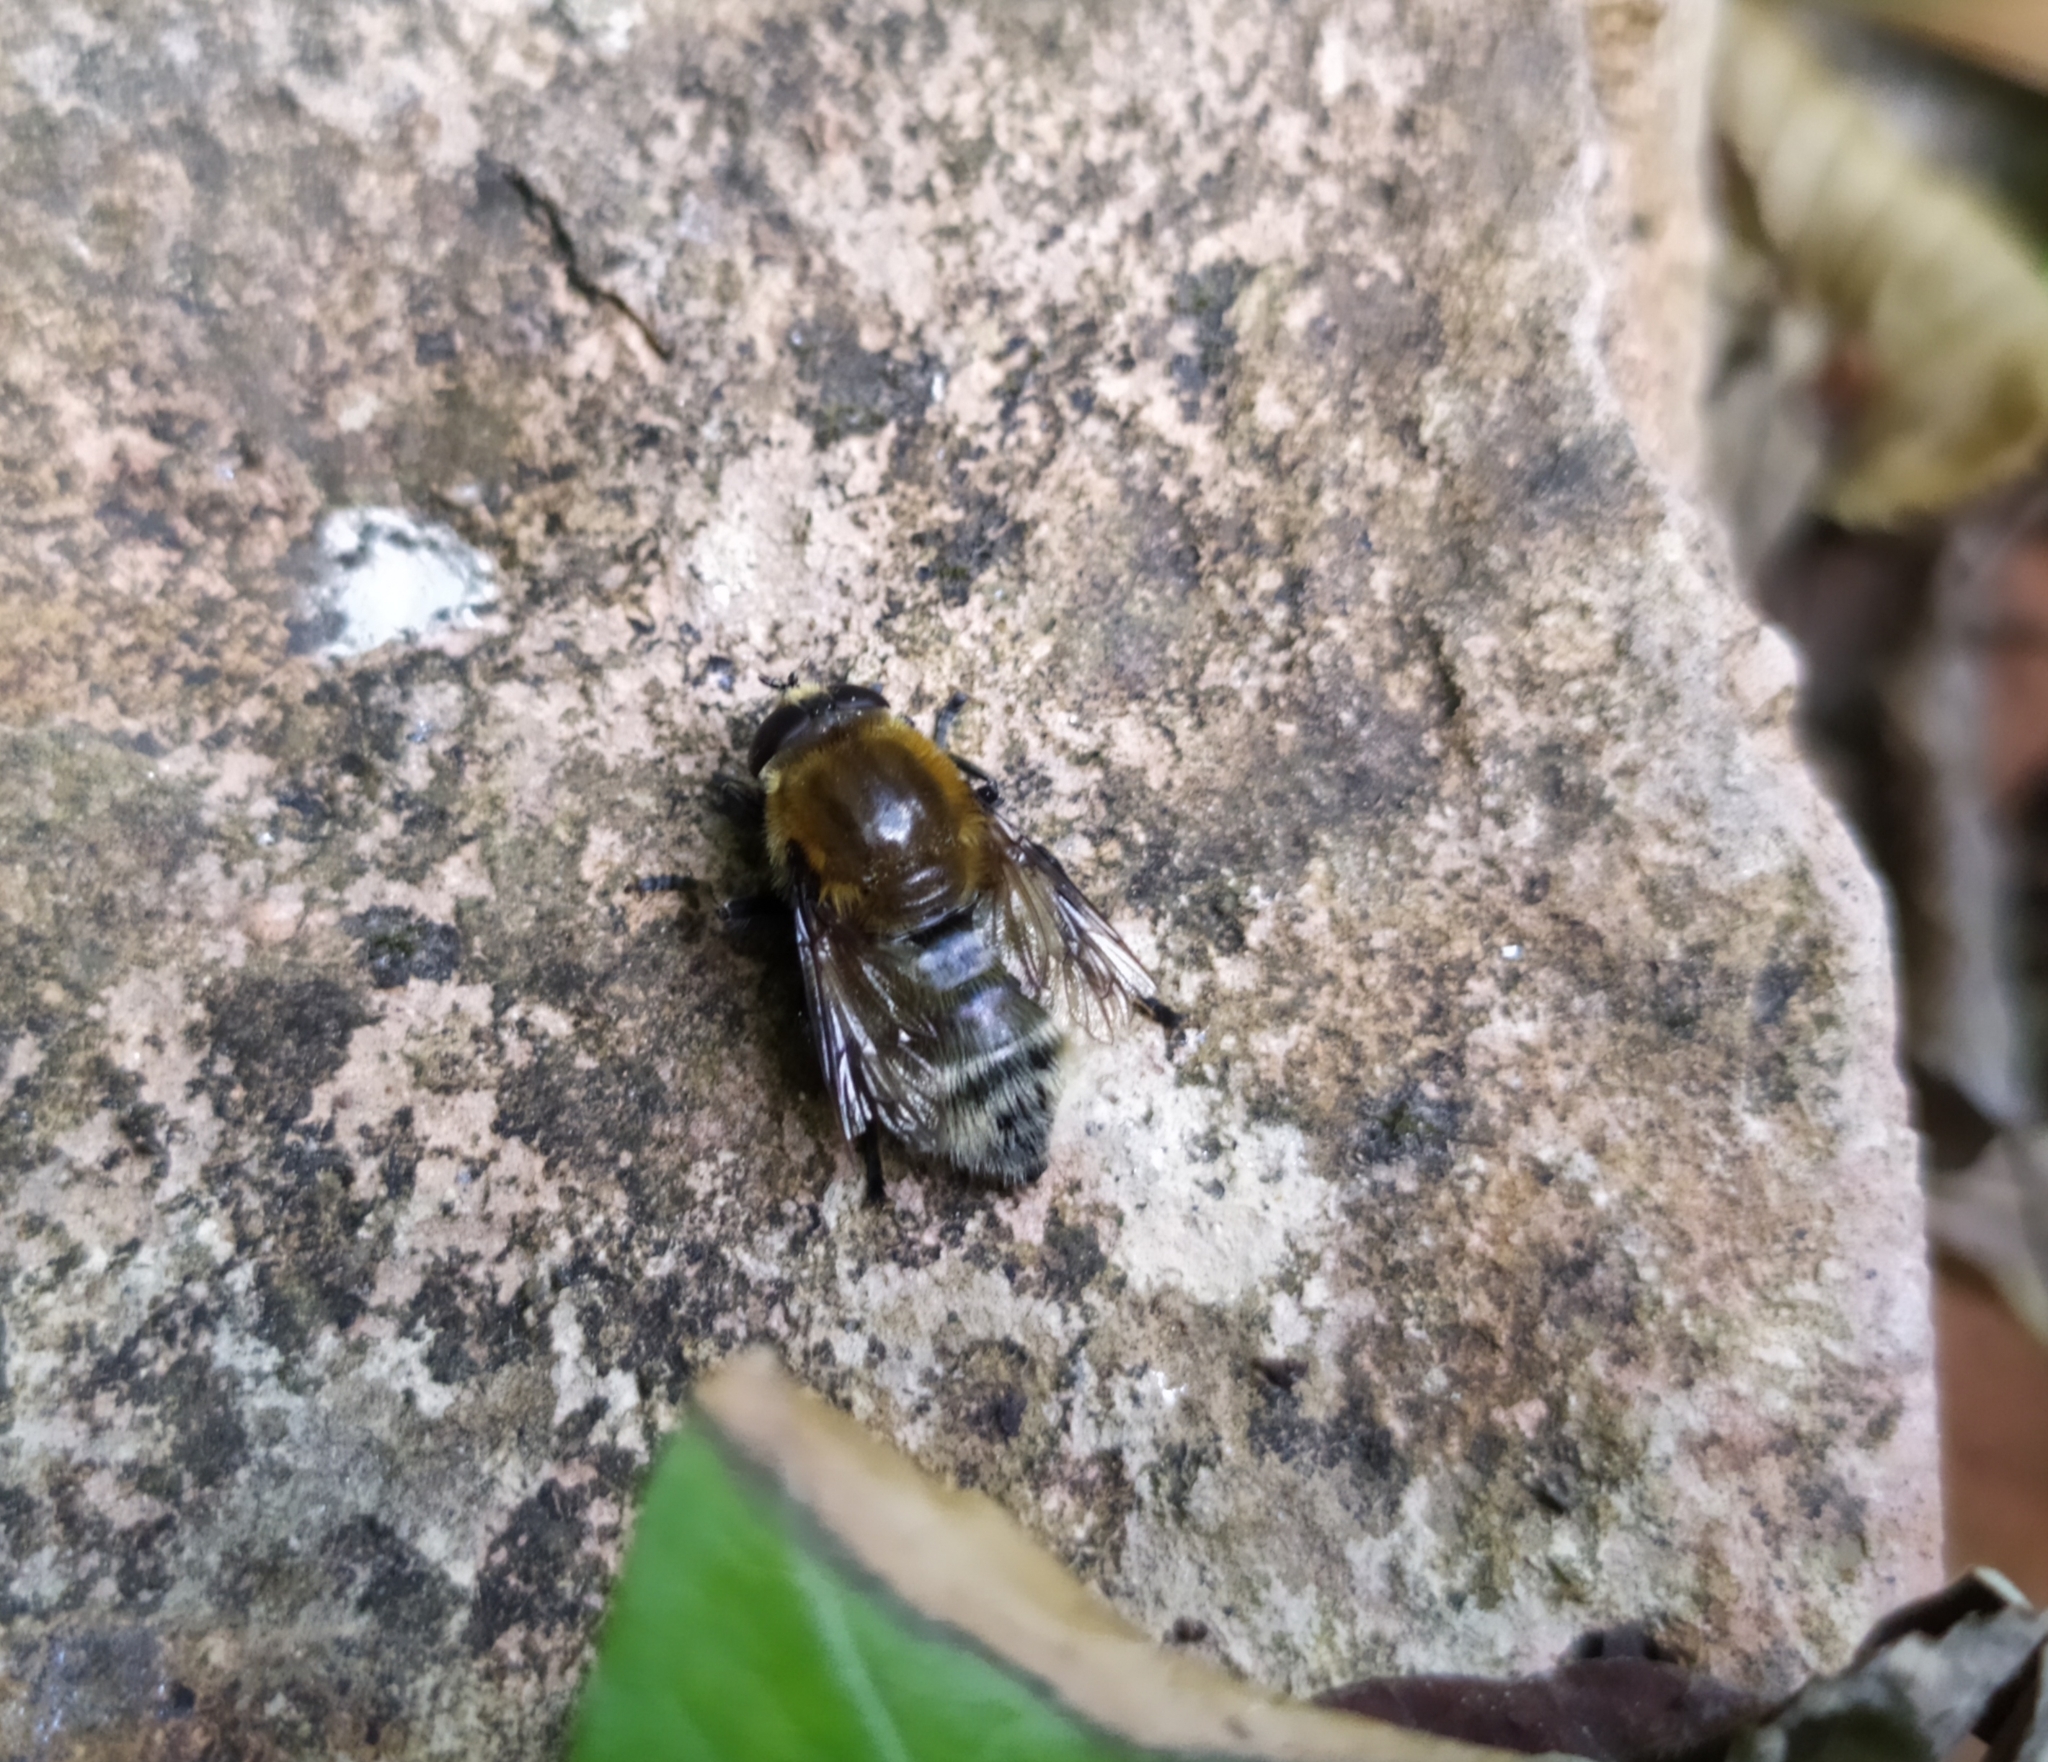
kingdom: Animalia
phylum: Arthropoda
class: Insecta
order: Diptera
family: Syrphidae
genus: Merodon
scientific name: Merodon equestris
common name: Greater bulb-fly
